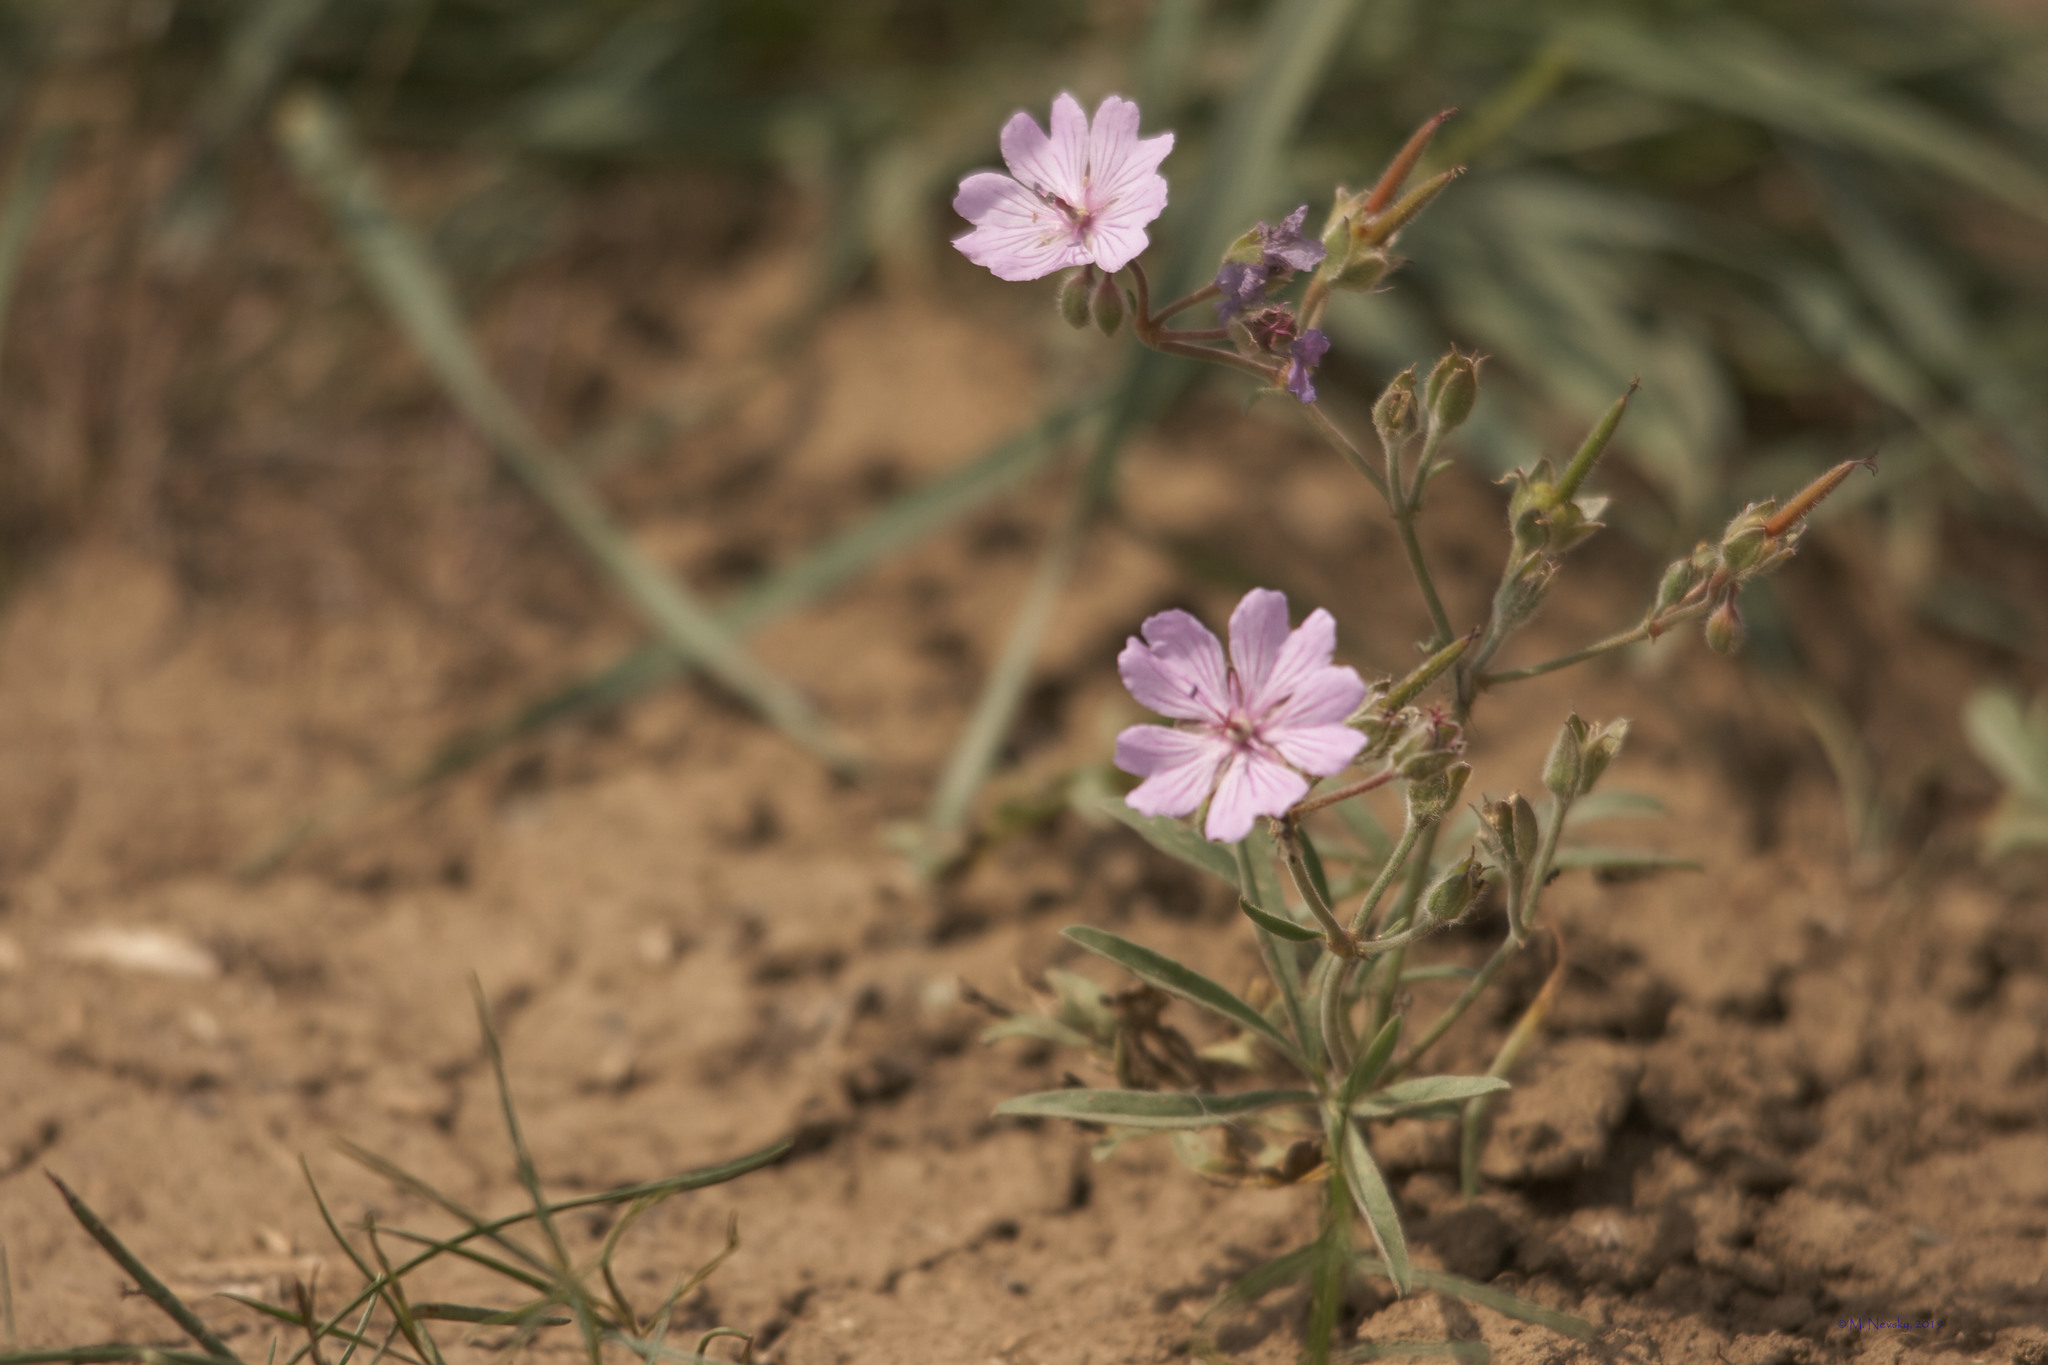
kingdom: Plantae
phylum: Tracheophyta
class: Magnoliopsida
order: Geraniales
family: Geraniaceae
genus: Geranium
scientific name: Geranium linearilobum
